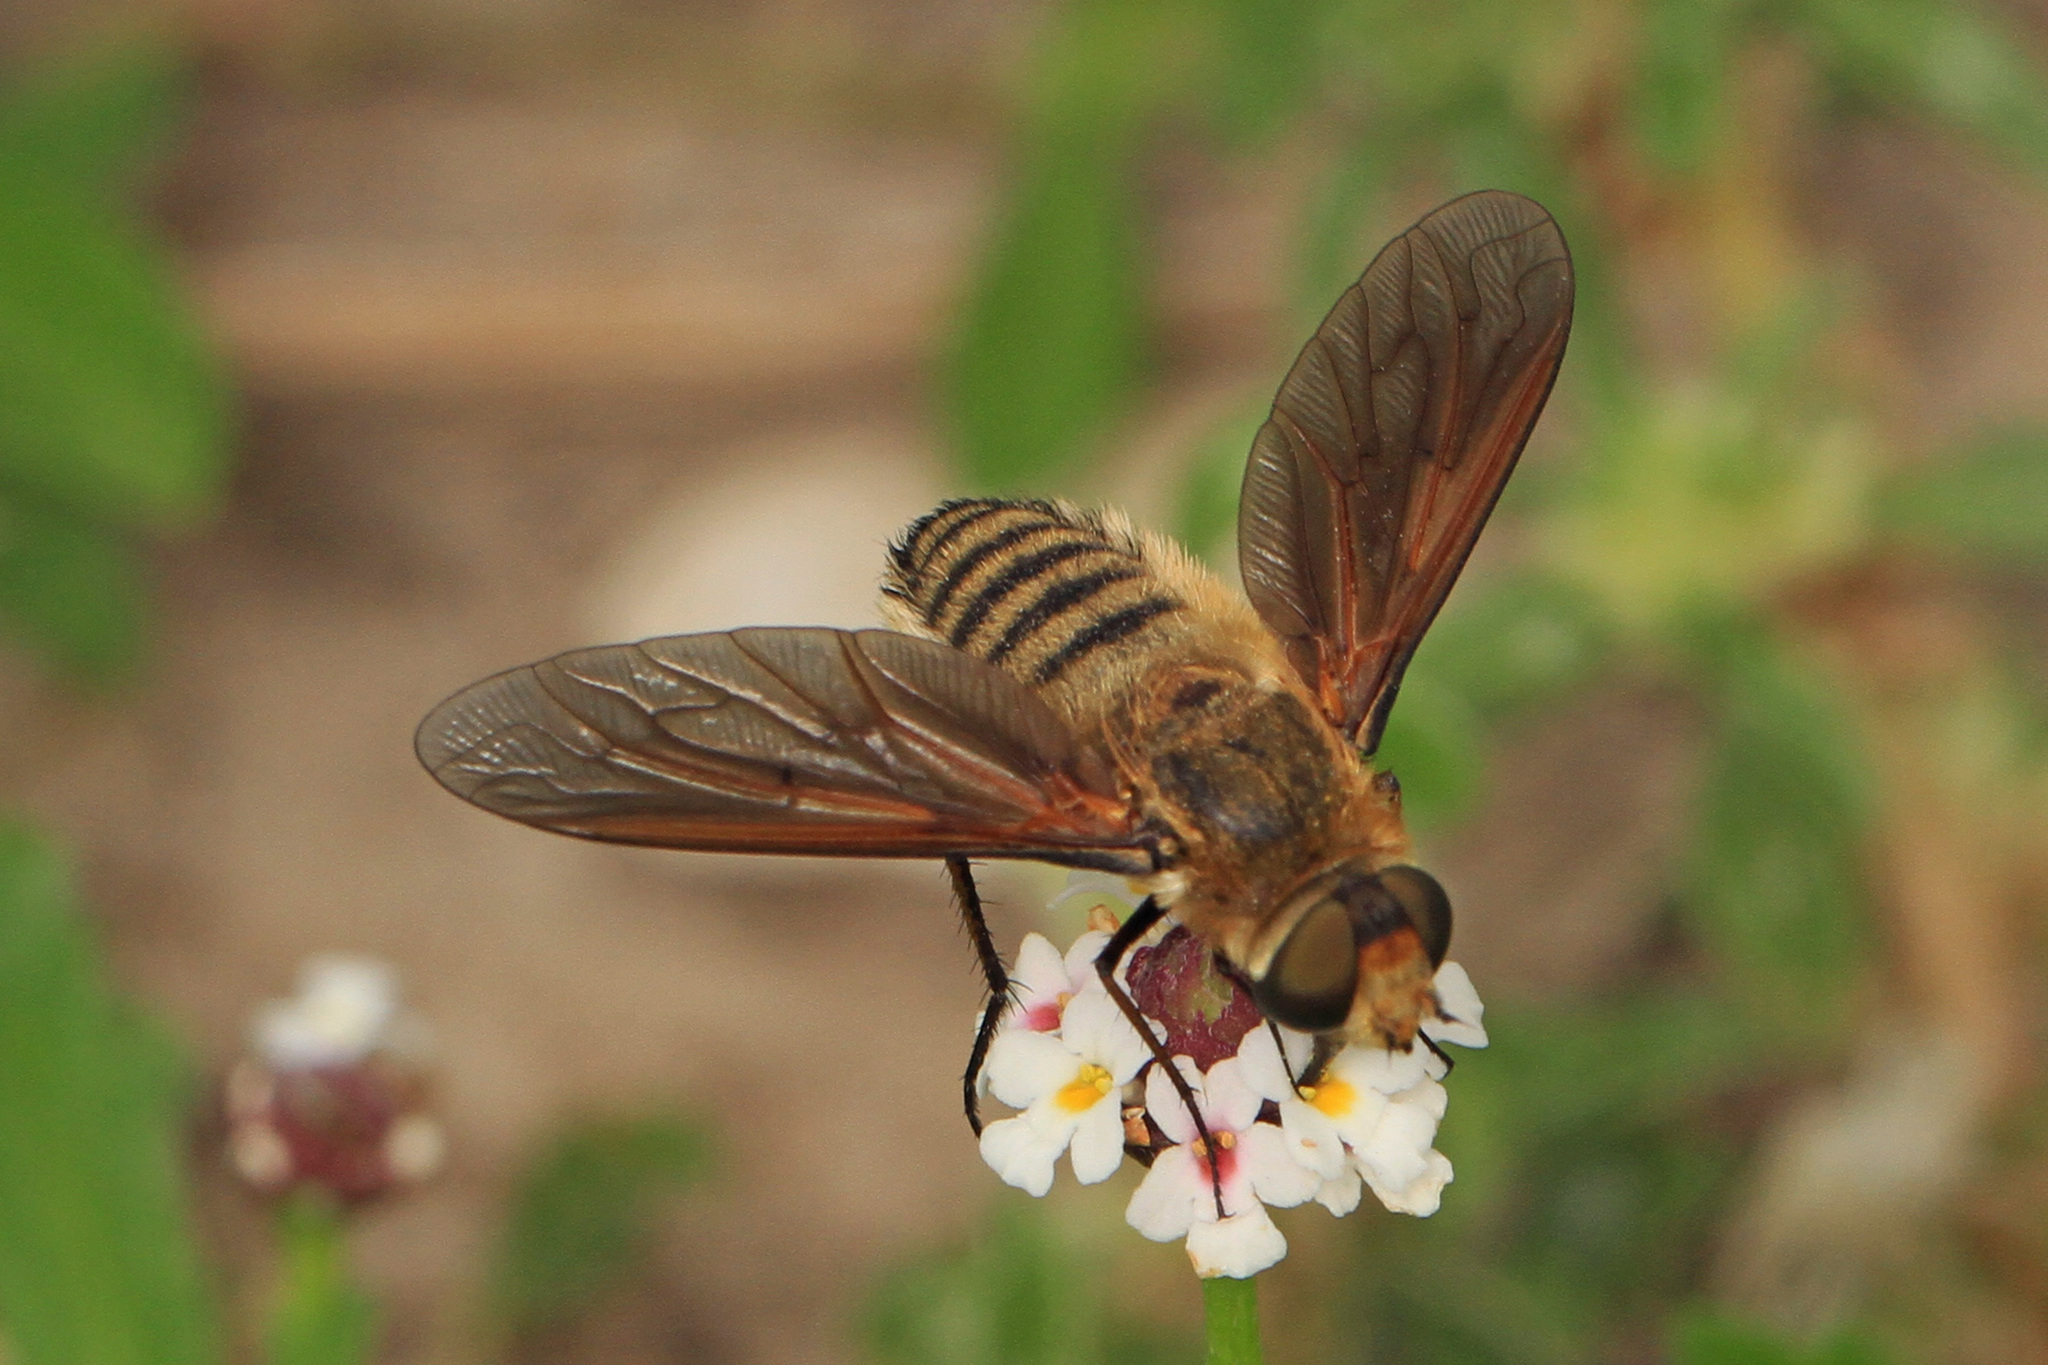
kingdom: Animalia
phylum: Arthropoda
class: Insecta
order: Diptera
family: Bombyliidae
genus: Poecilanthrax
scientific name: Poecilanthrax lucifer
